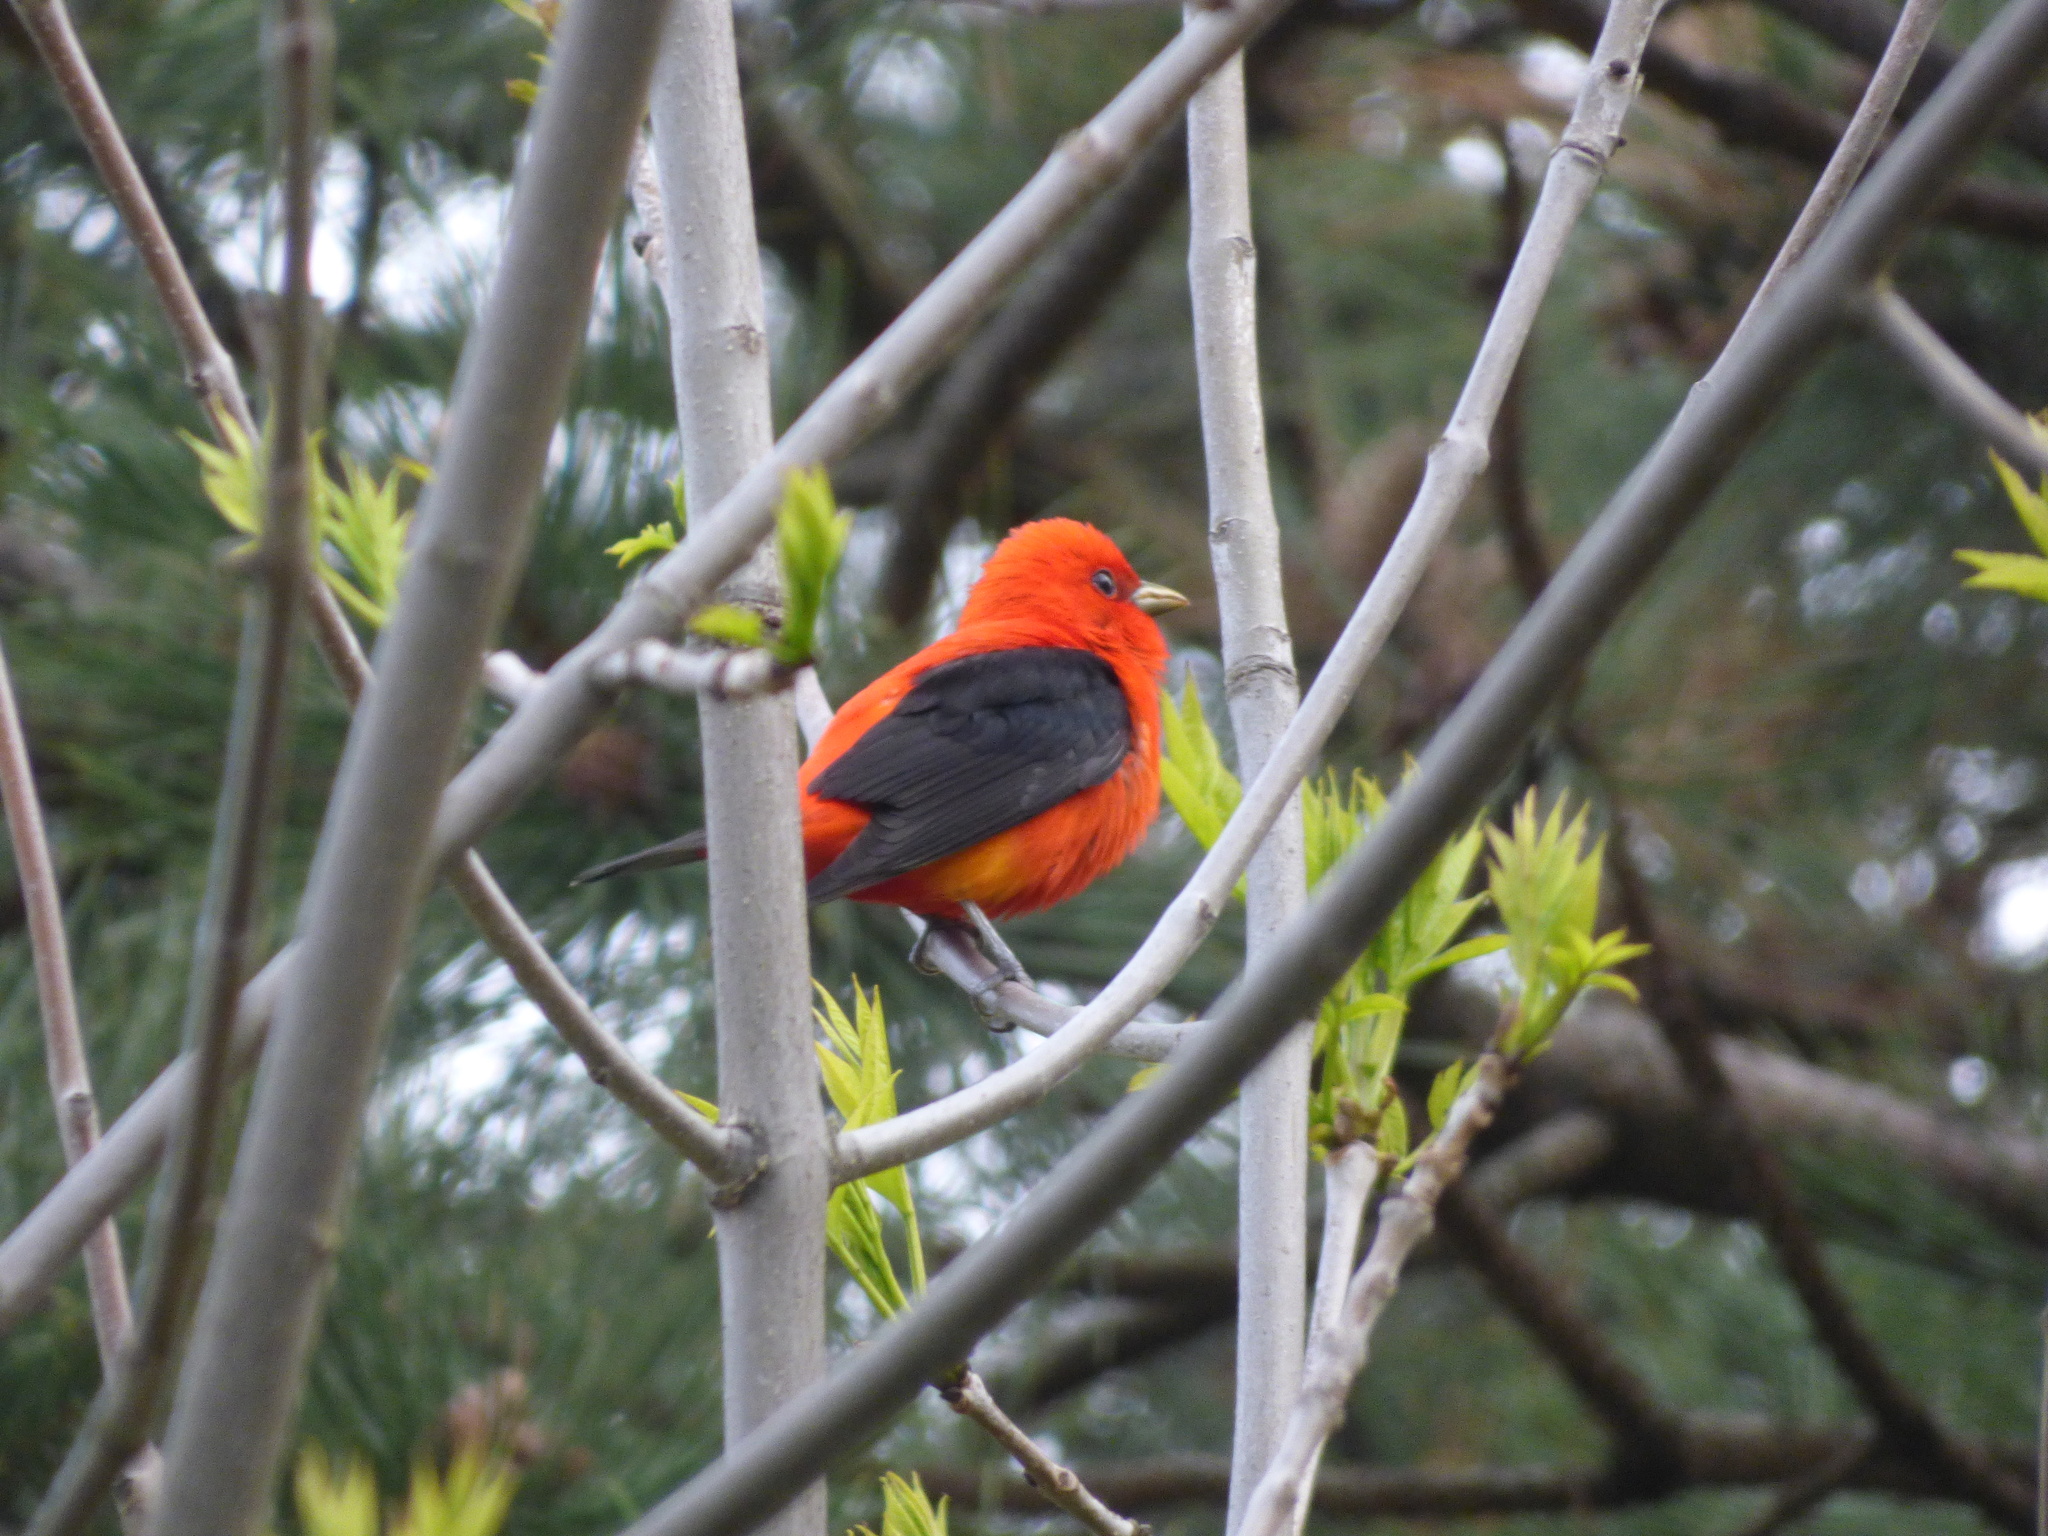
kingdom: Animalia
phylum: Chordata
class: Aves
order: Passeriformes
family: Cardinalidae
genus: Piranga
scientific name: Piranga olivacea
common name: Scarlet tanager
